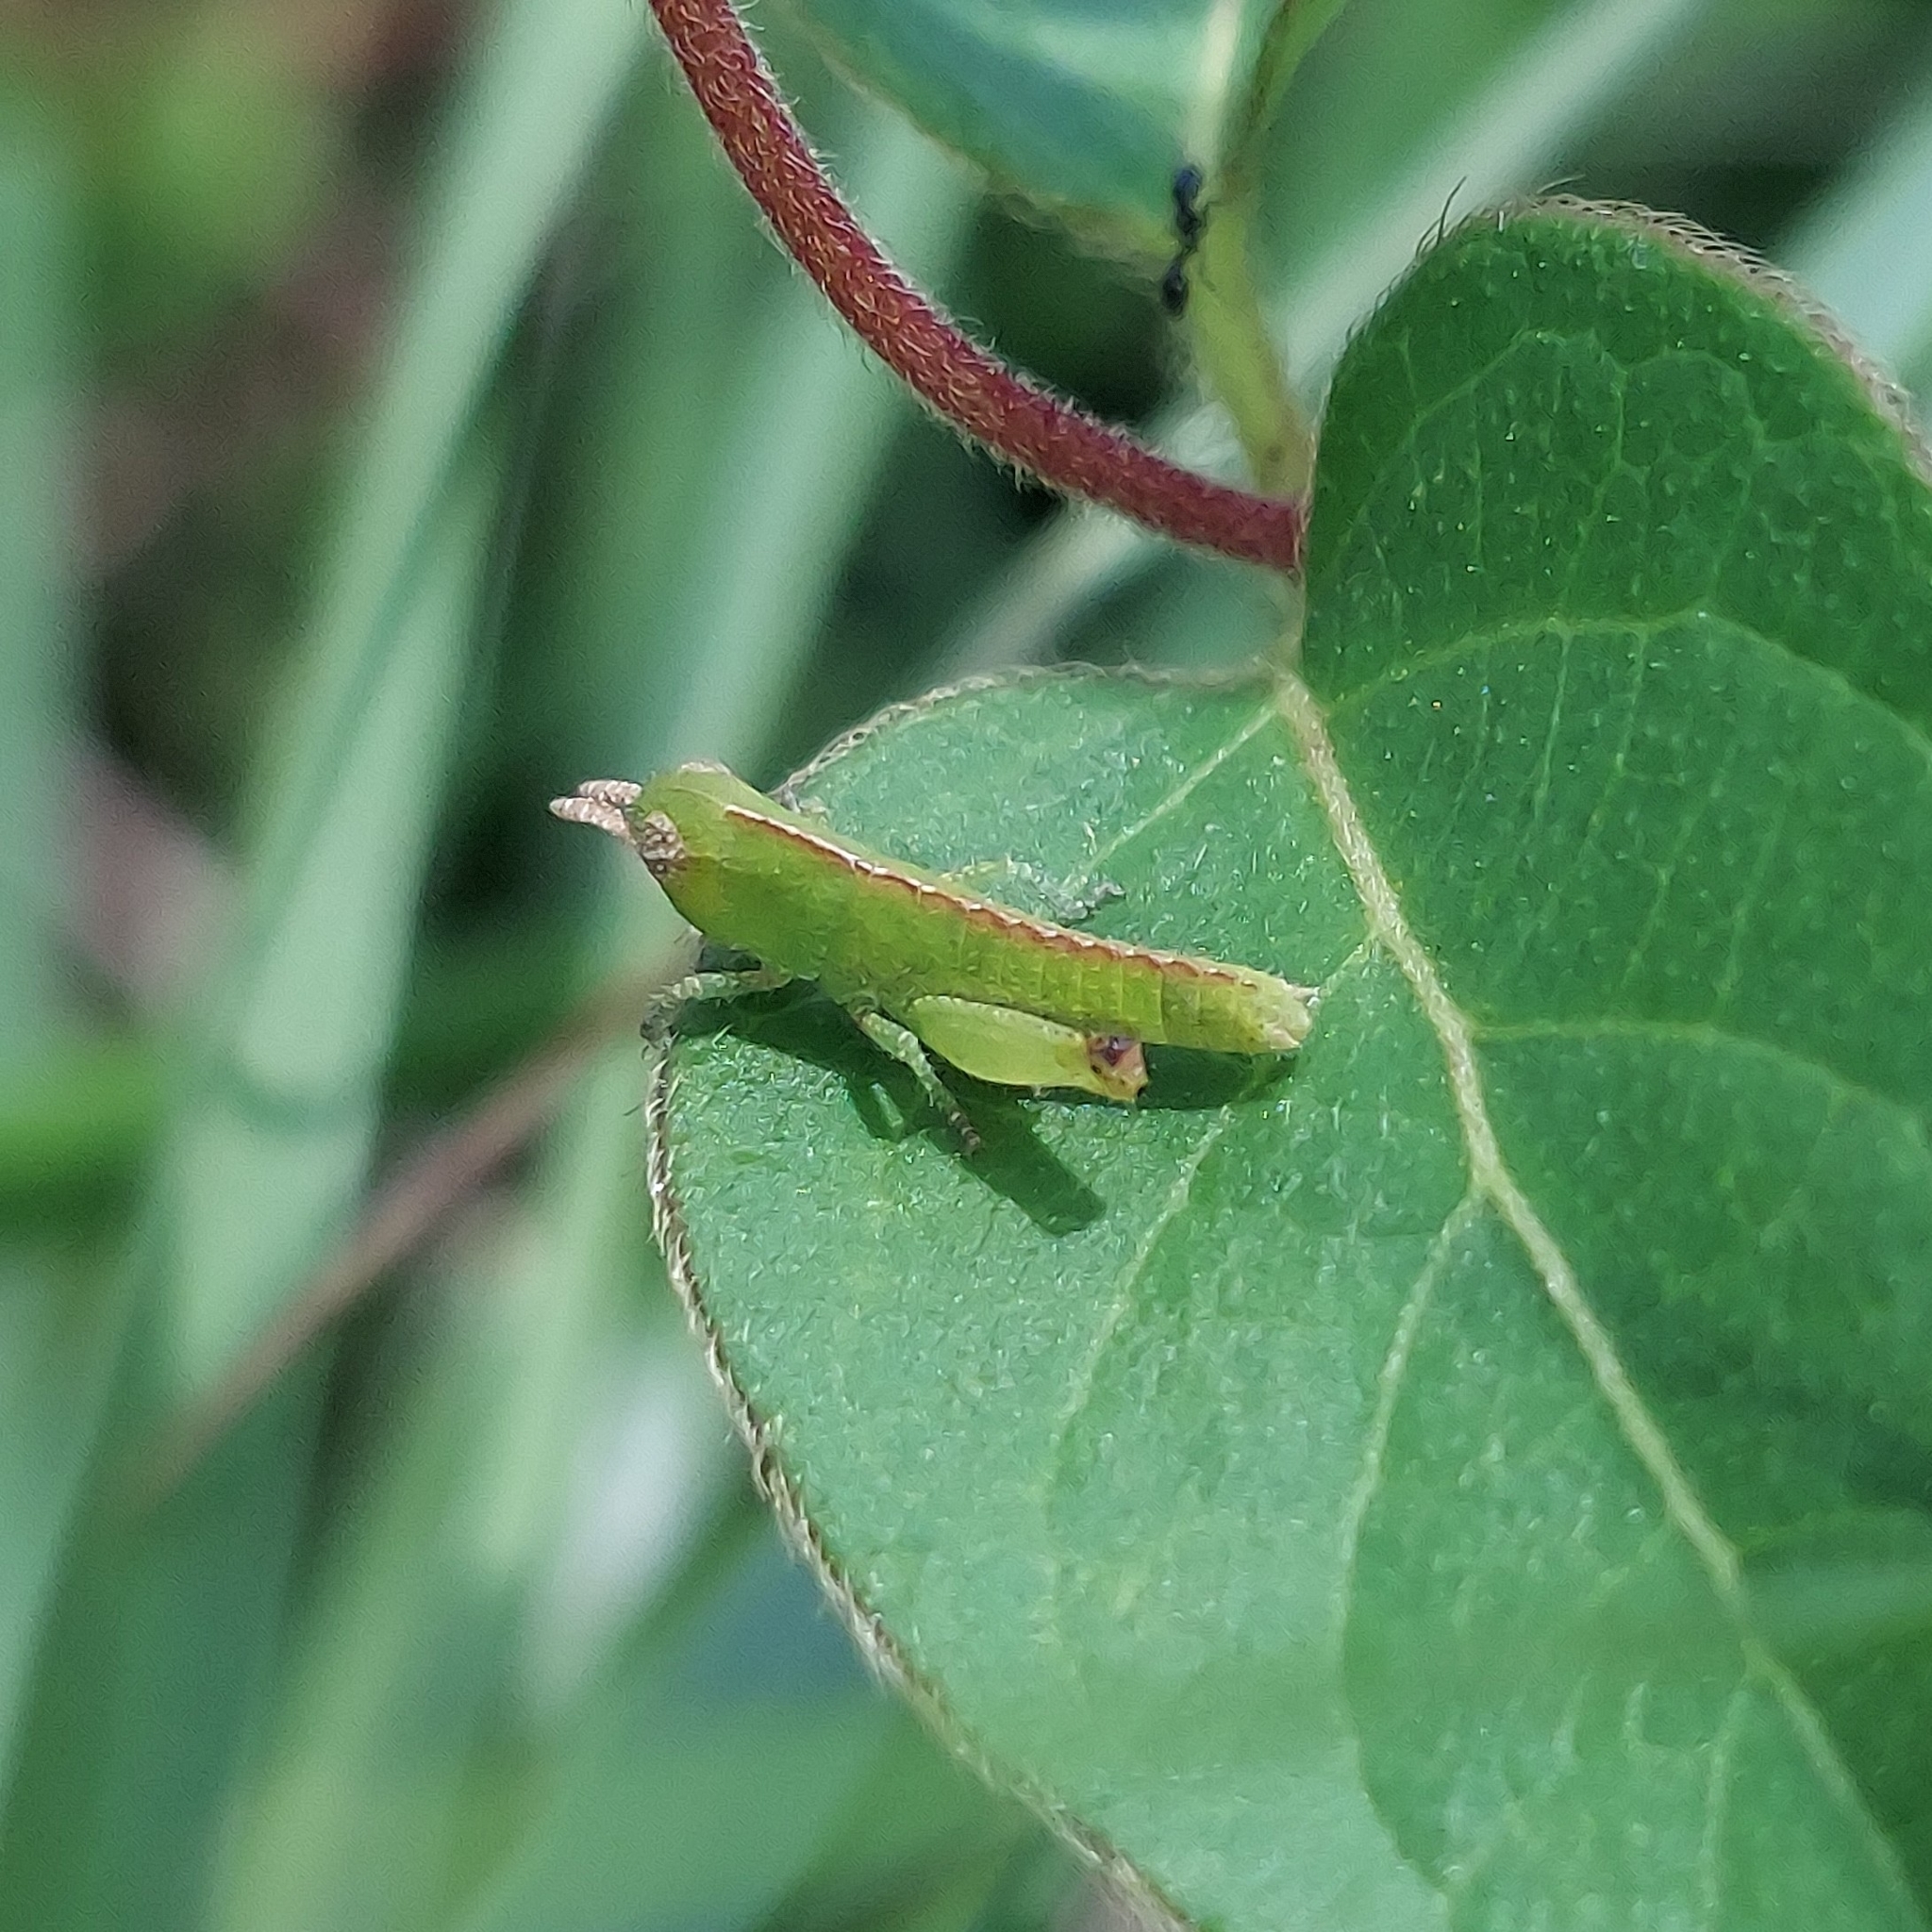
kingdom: Animalia
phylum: Arthropoda
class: Insecta
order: Orthoptera
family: Acrididae
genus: Chortophaga
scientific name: Chortophaga viridifasciata
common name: Green-striped grasshopper
